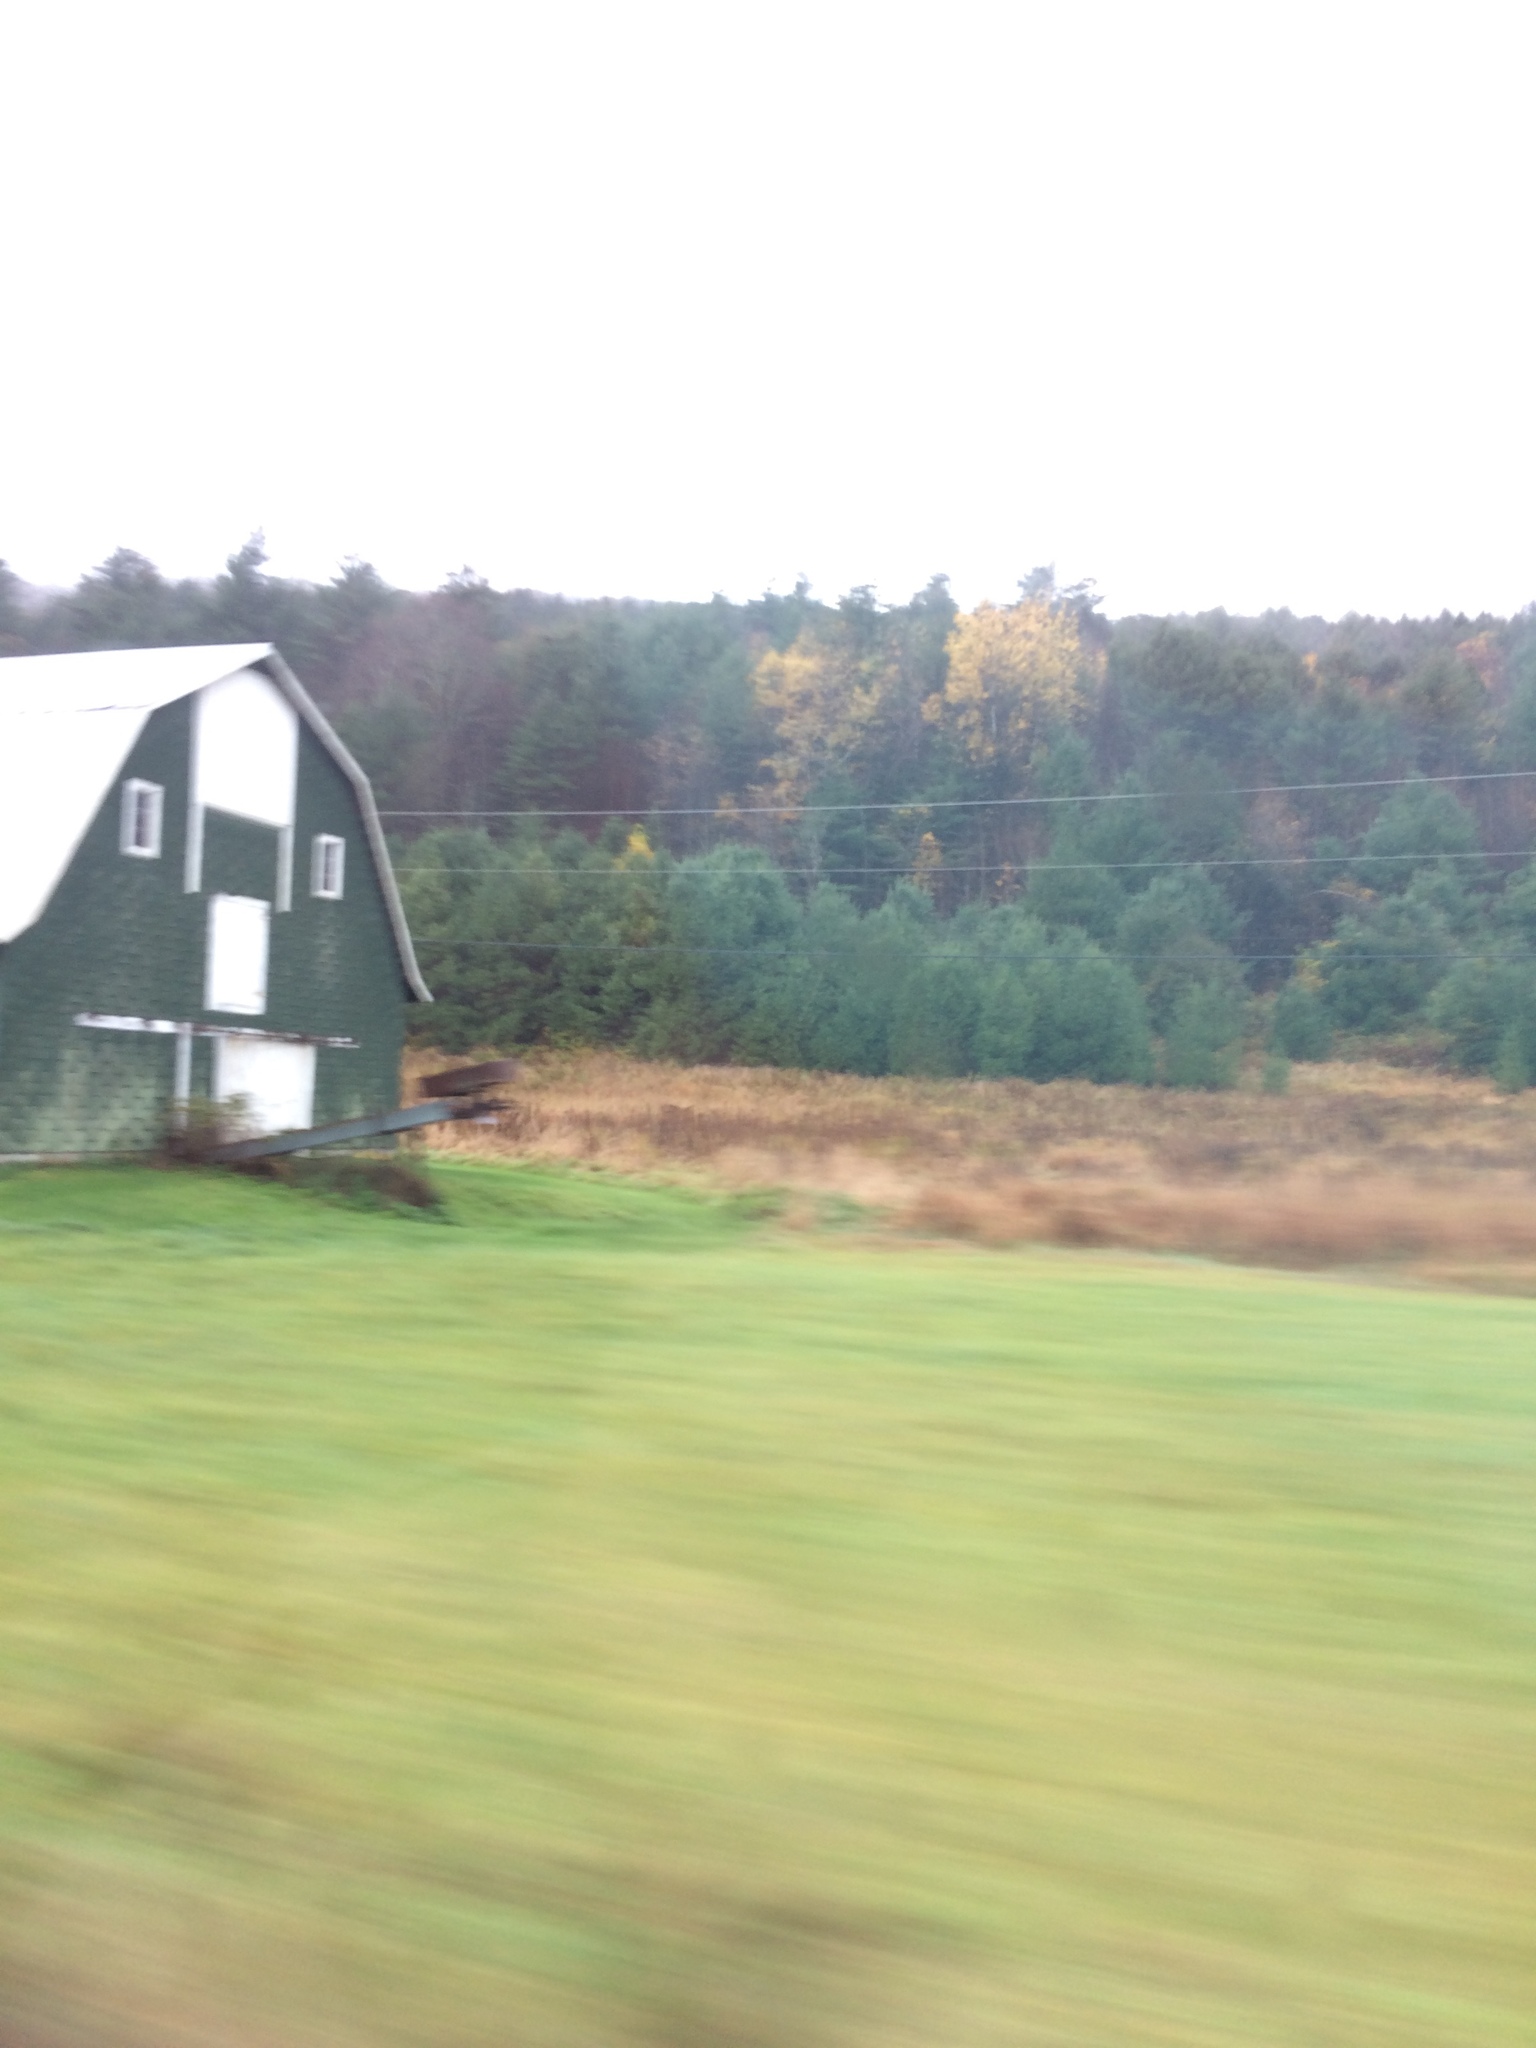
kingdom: Plantae
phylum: Tracheophyta
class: Pinopsida
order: Pinales
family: Pinaceae
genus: Pinus
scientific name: Pinus strobus
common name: Weymouth pine
